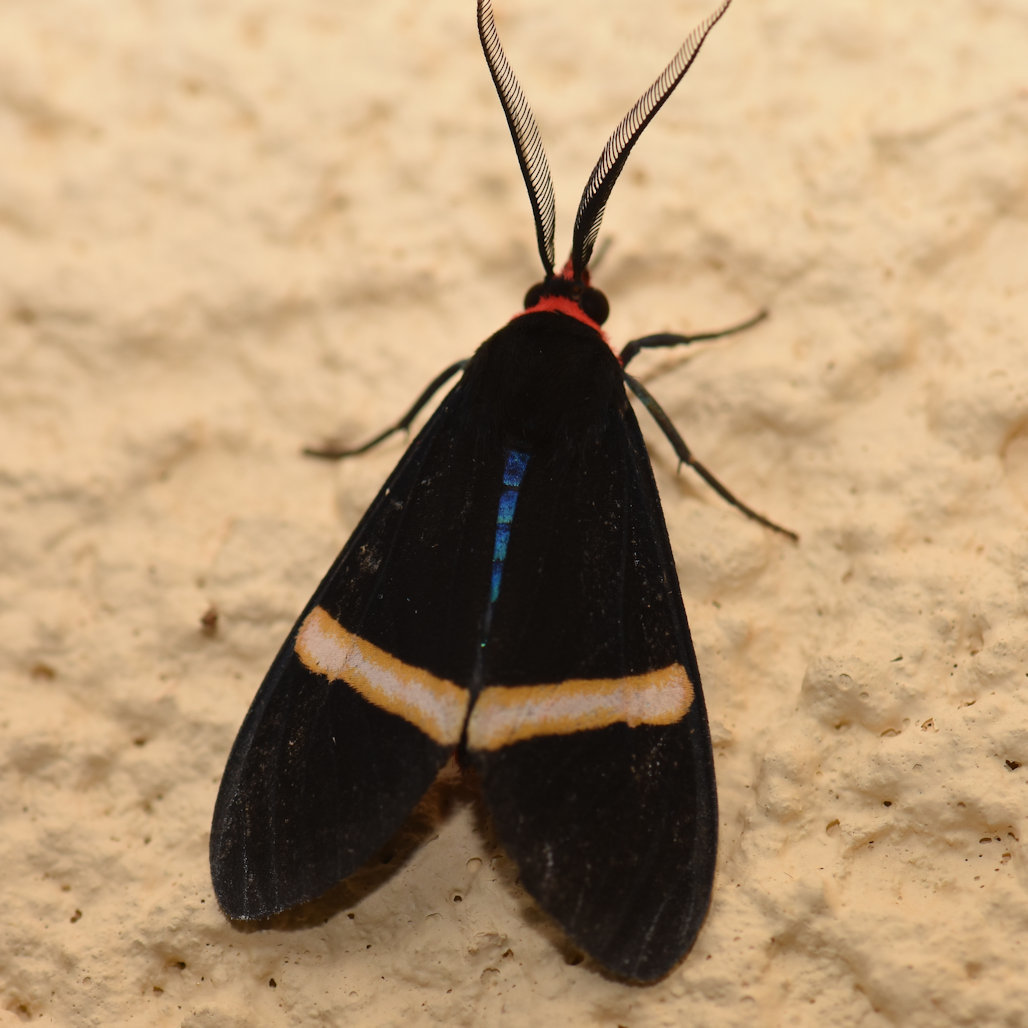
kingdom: Animalia
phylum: Arthropoda
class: Insecta
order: Lepidoptera
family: Erebidae
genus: Uraga
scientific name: Uraga haemorrhoa
